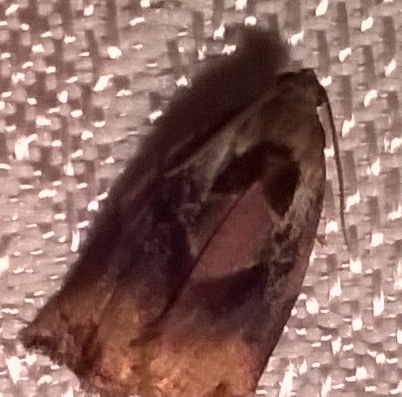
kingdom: Animalia
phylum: Arthropoda
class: Insecta
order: Lepidoptera
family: Tortricidae
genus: Archips
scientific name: Archips podana
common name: Large fruit-tree tortrix
